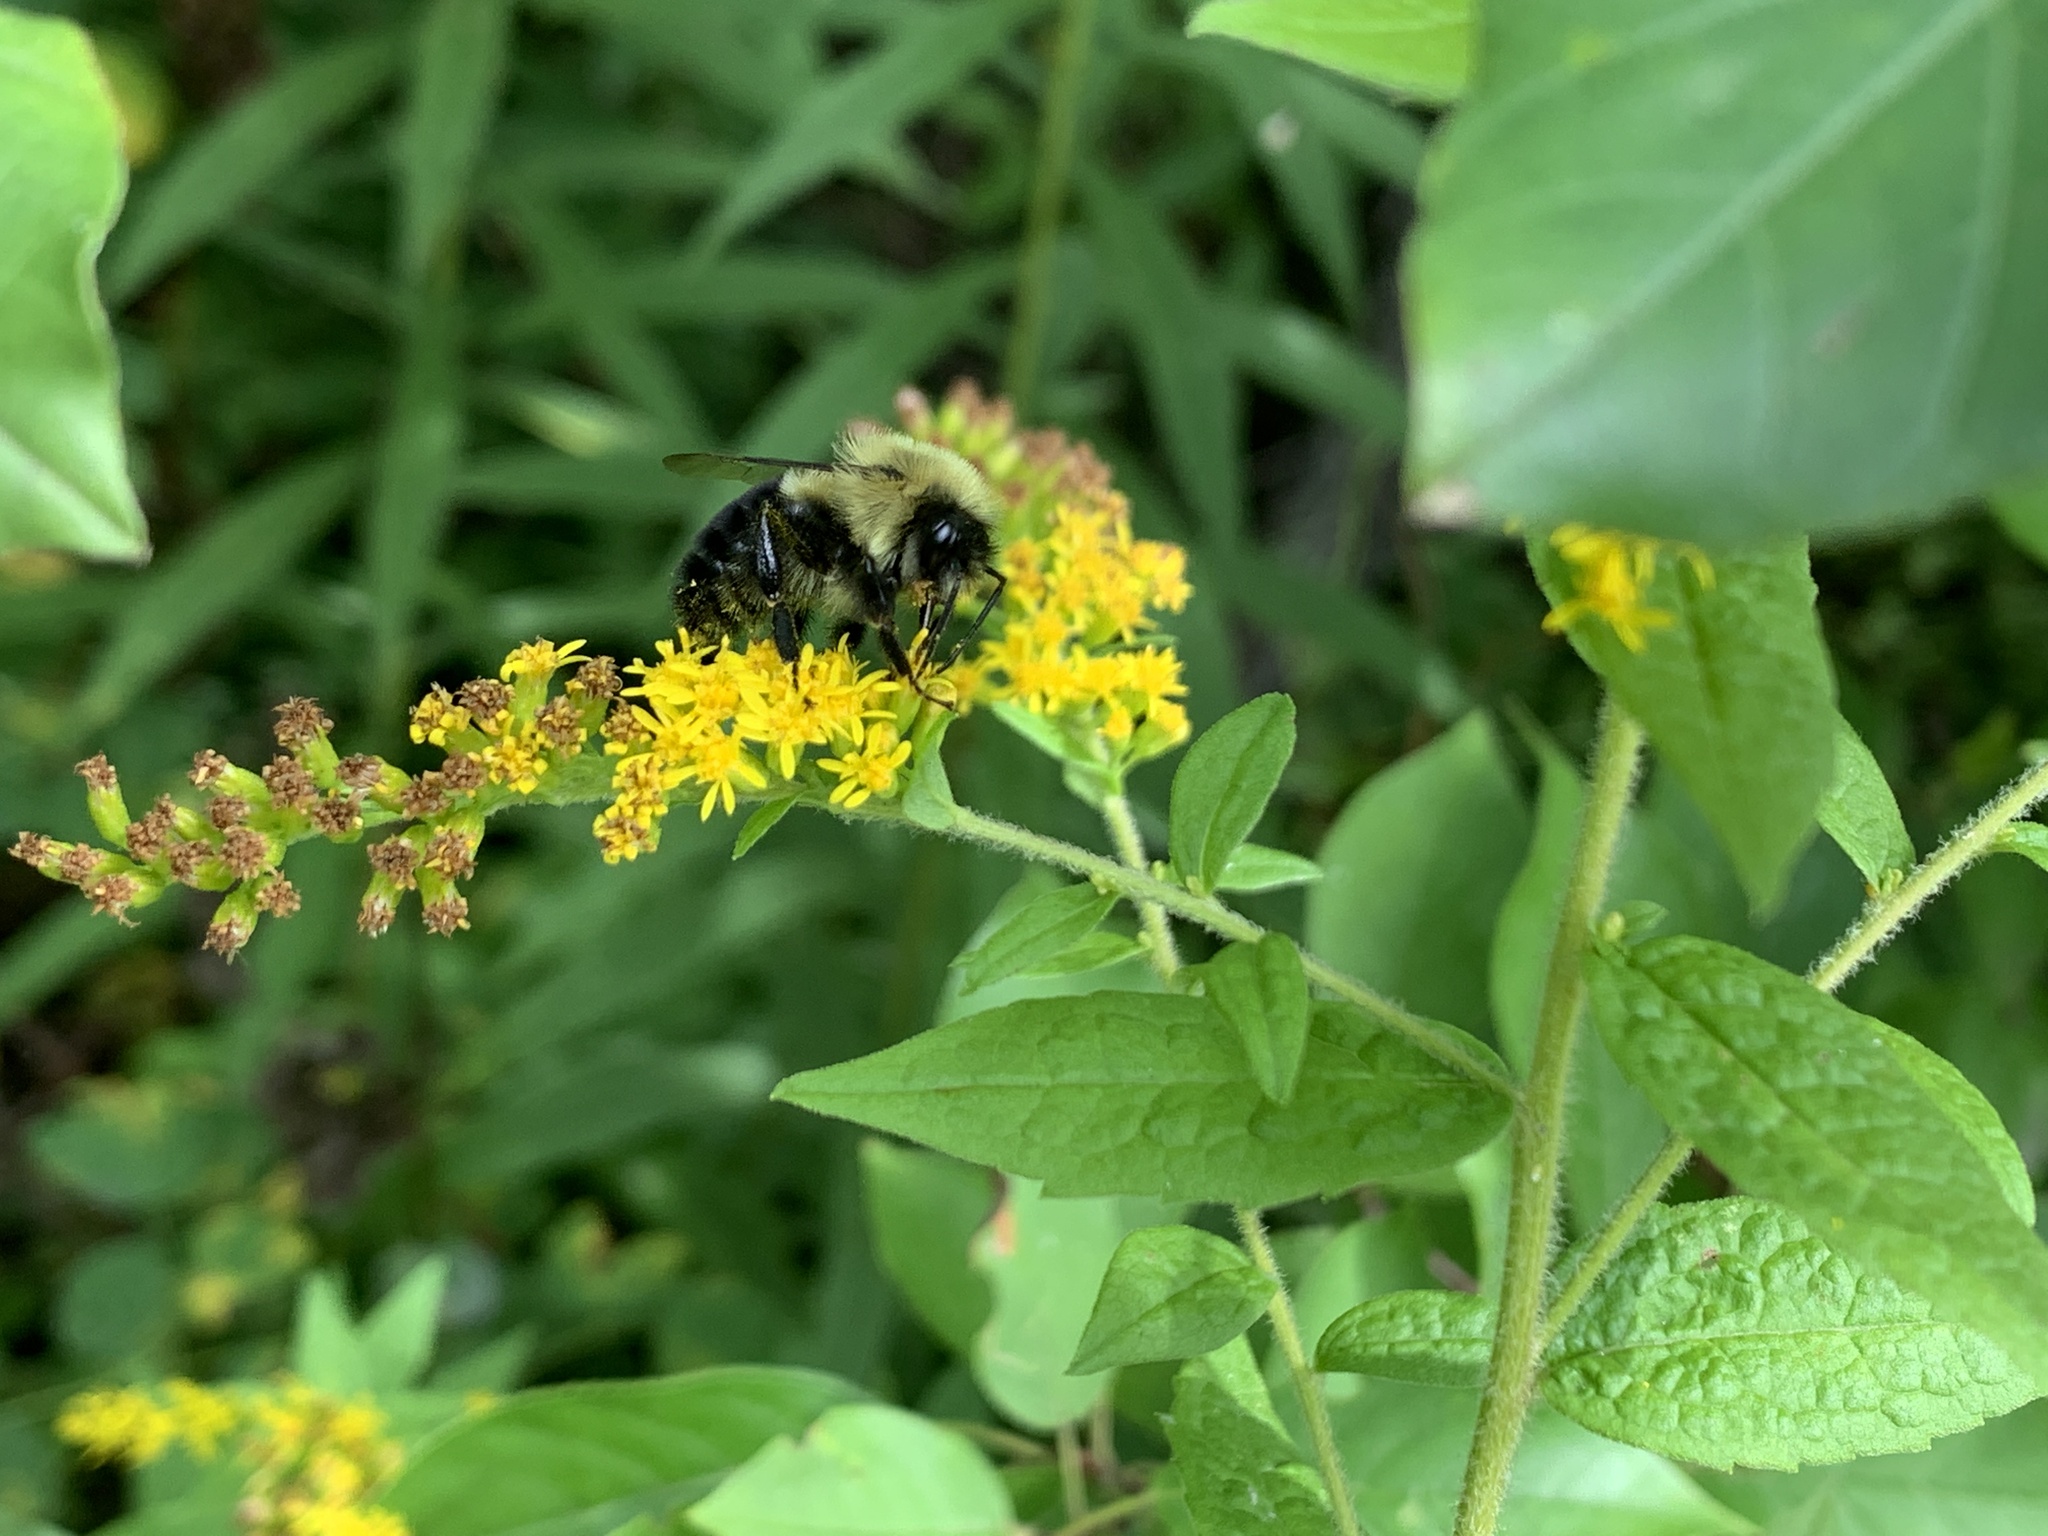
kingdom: Animalia
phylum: Arthropoda
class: Insecta
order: Hymenoptera
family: Apidae
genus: Bombus
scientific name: Bombus impatiens
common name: Common eastern bumble bee
